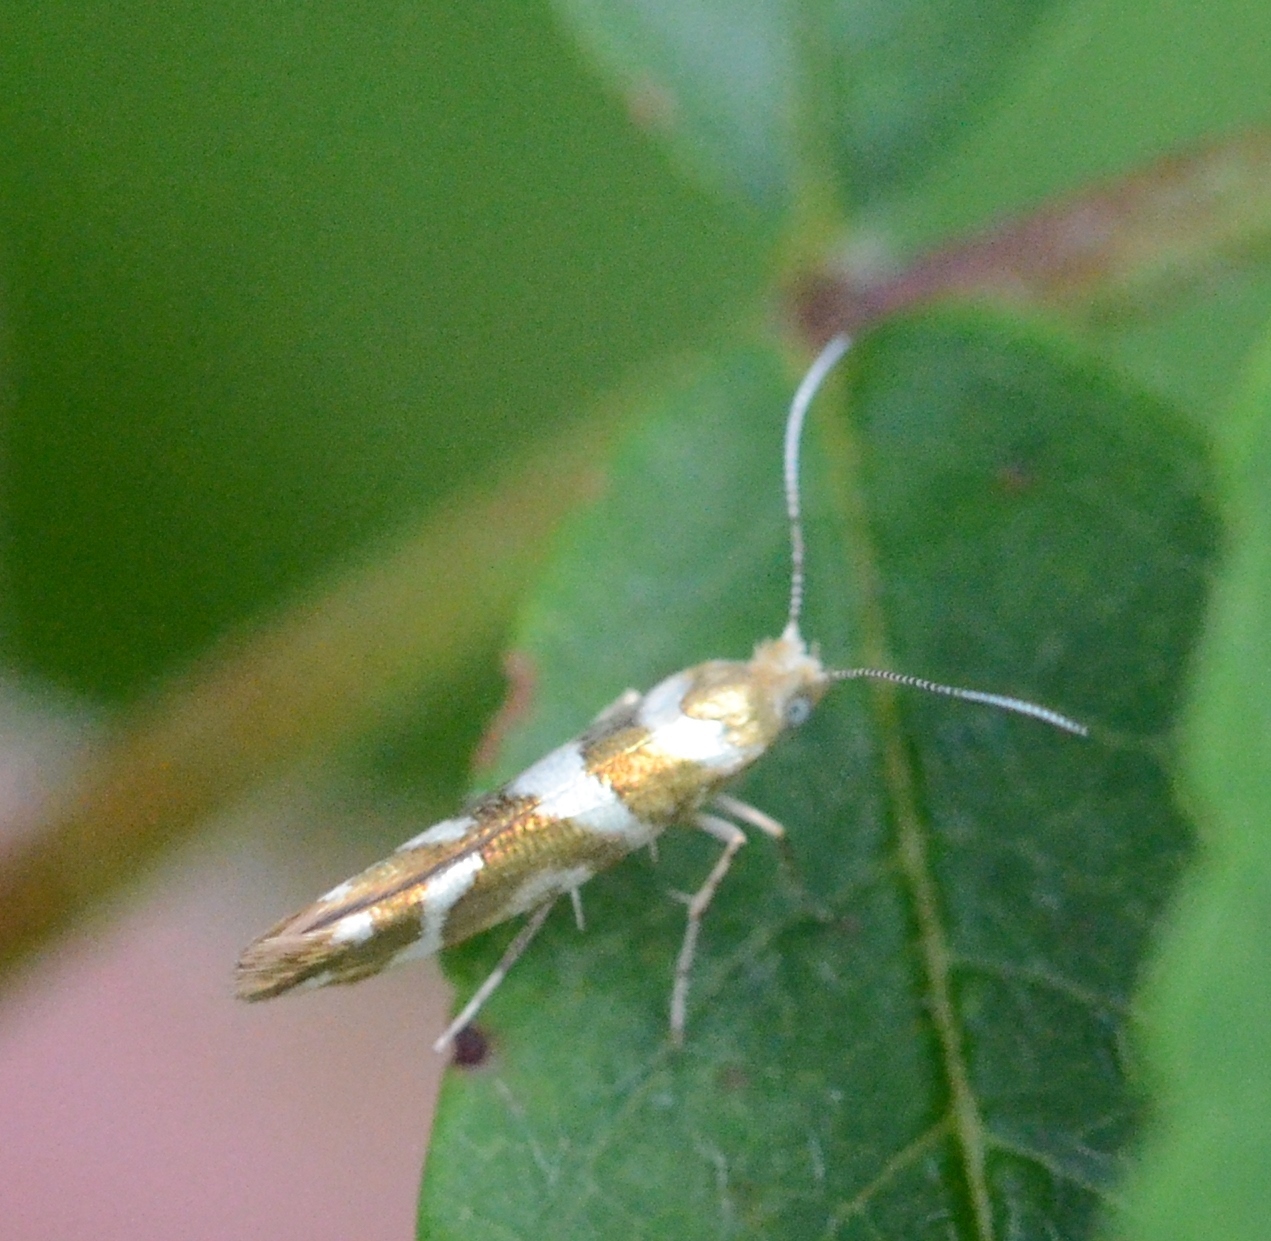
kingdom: Animalia
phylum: Arthropoda
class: Insecta
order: Lepidoptera
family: Argyresthiidae
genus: Argyresthia
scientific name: Argyresthia goedartella
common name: Golden argent
